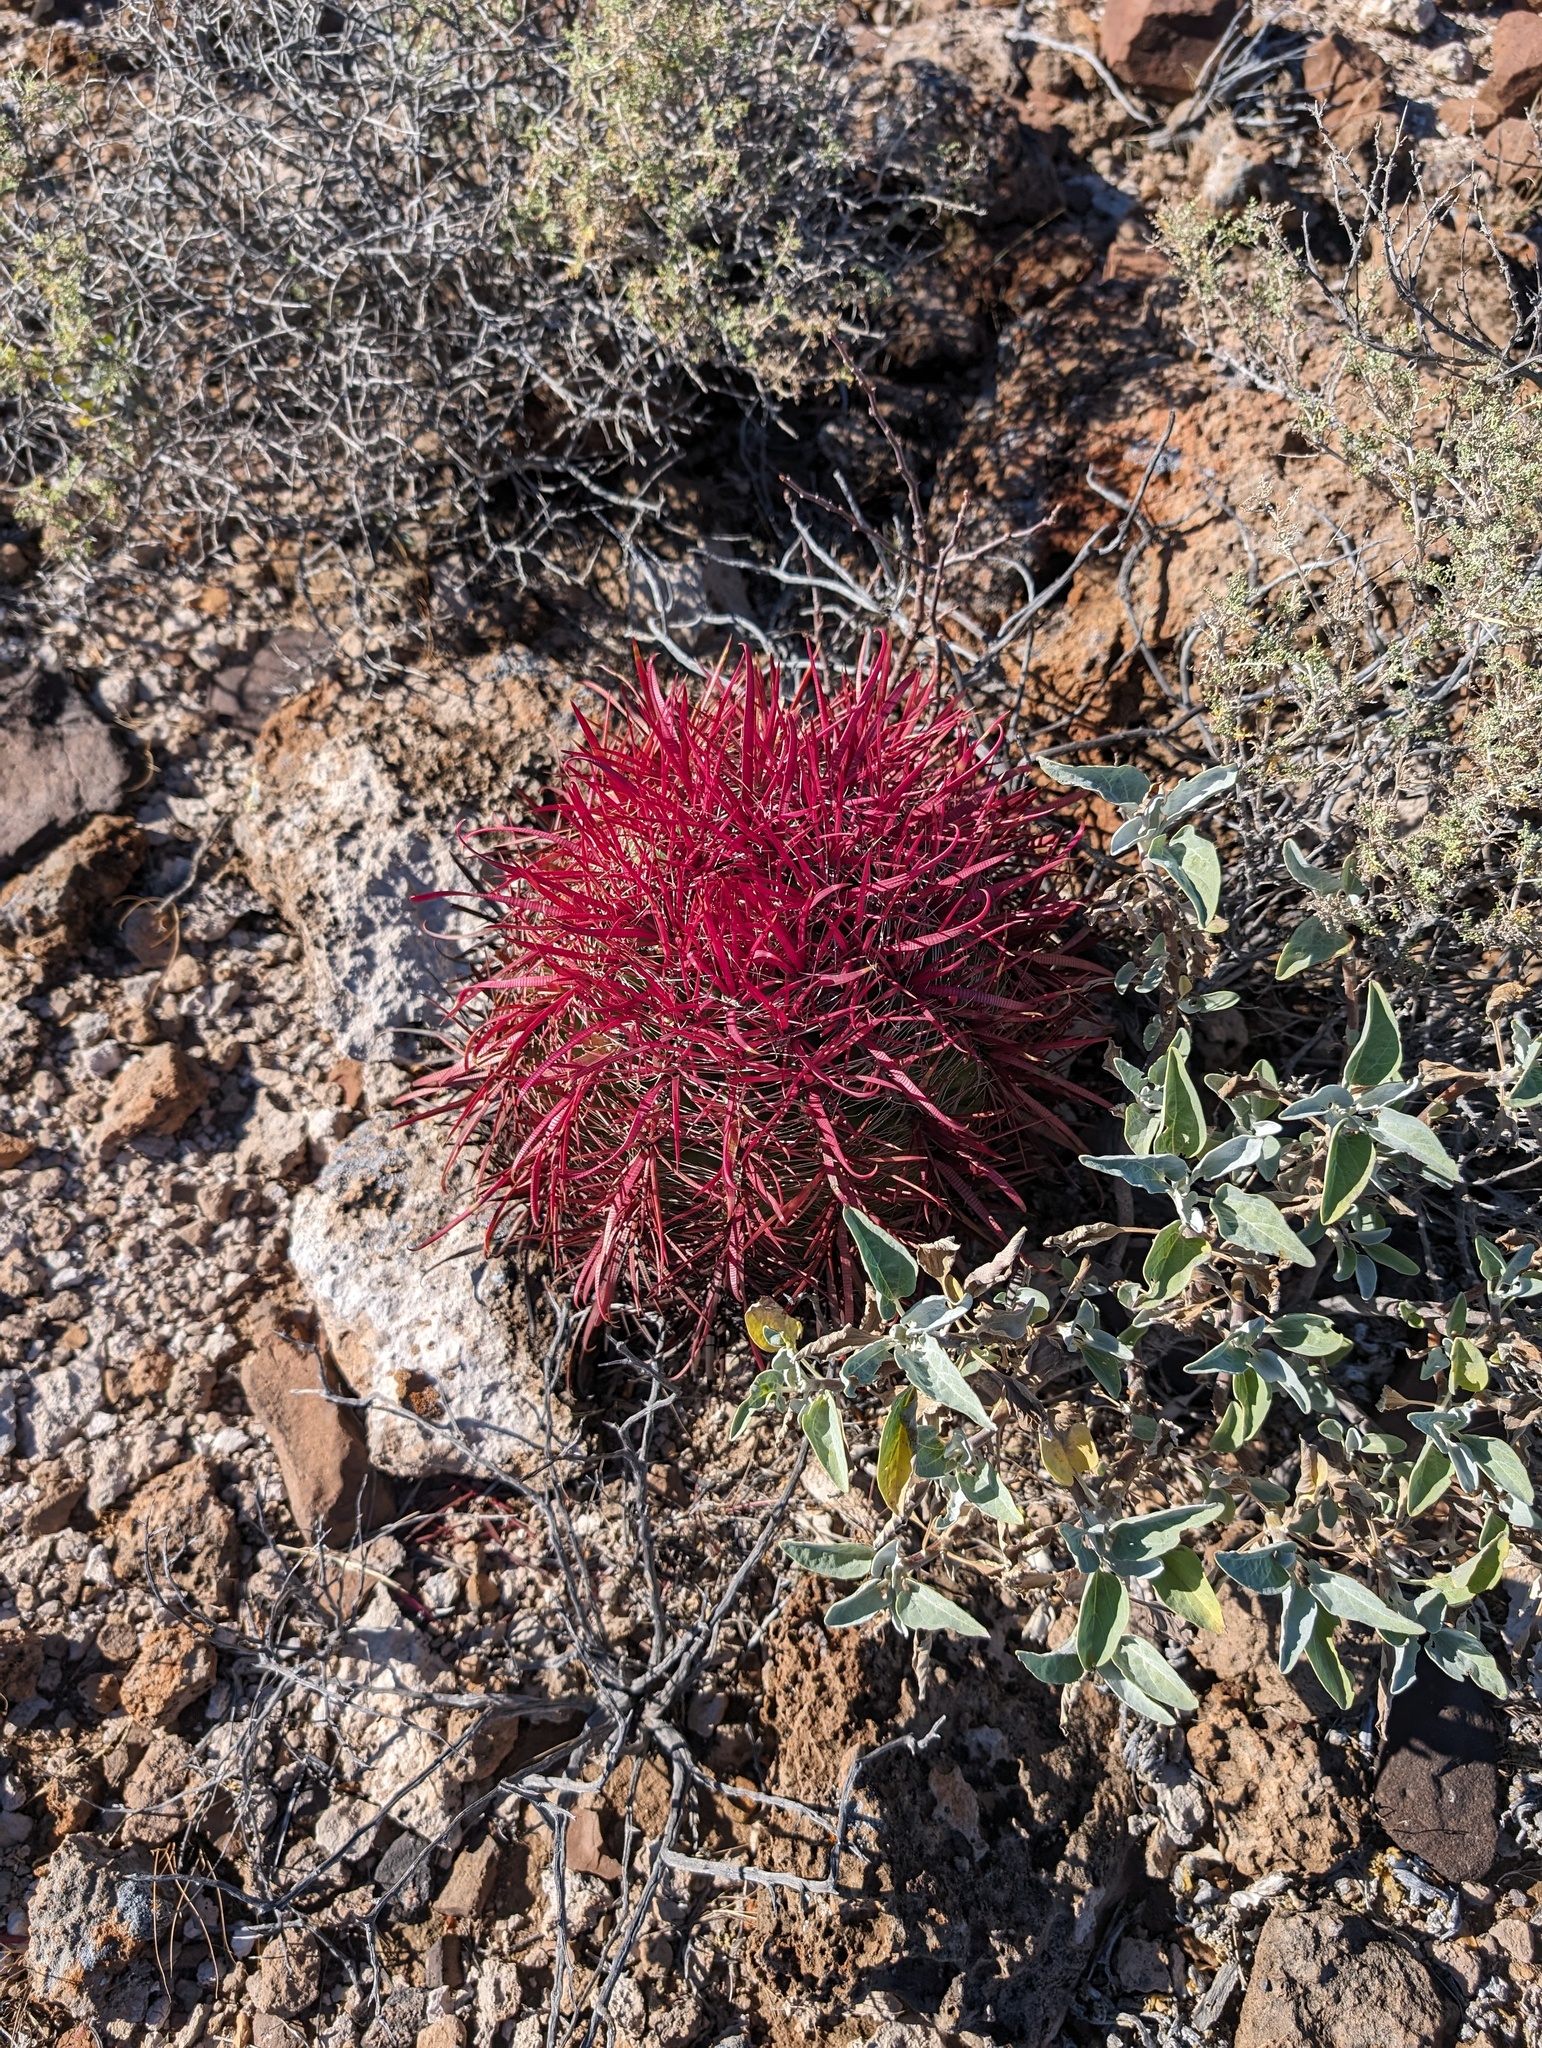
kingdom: Plantae
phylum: Tracheophyta
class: Magnoliopsida
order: Caryophyllales
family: Cactaceae
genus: Ferocactus
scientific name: Ferocactus gracilis
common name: Fire barrel cactus
